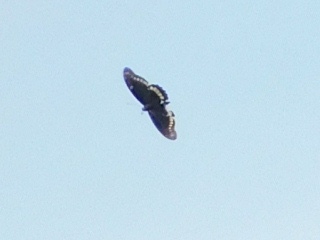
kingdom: Animalia
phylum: Arthropoda
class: Insecta
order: Lepidoptera
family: Papilionidae
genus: Battus
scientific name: Battus polydamas
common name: Polydamas swallowtail
